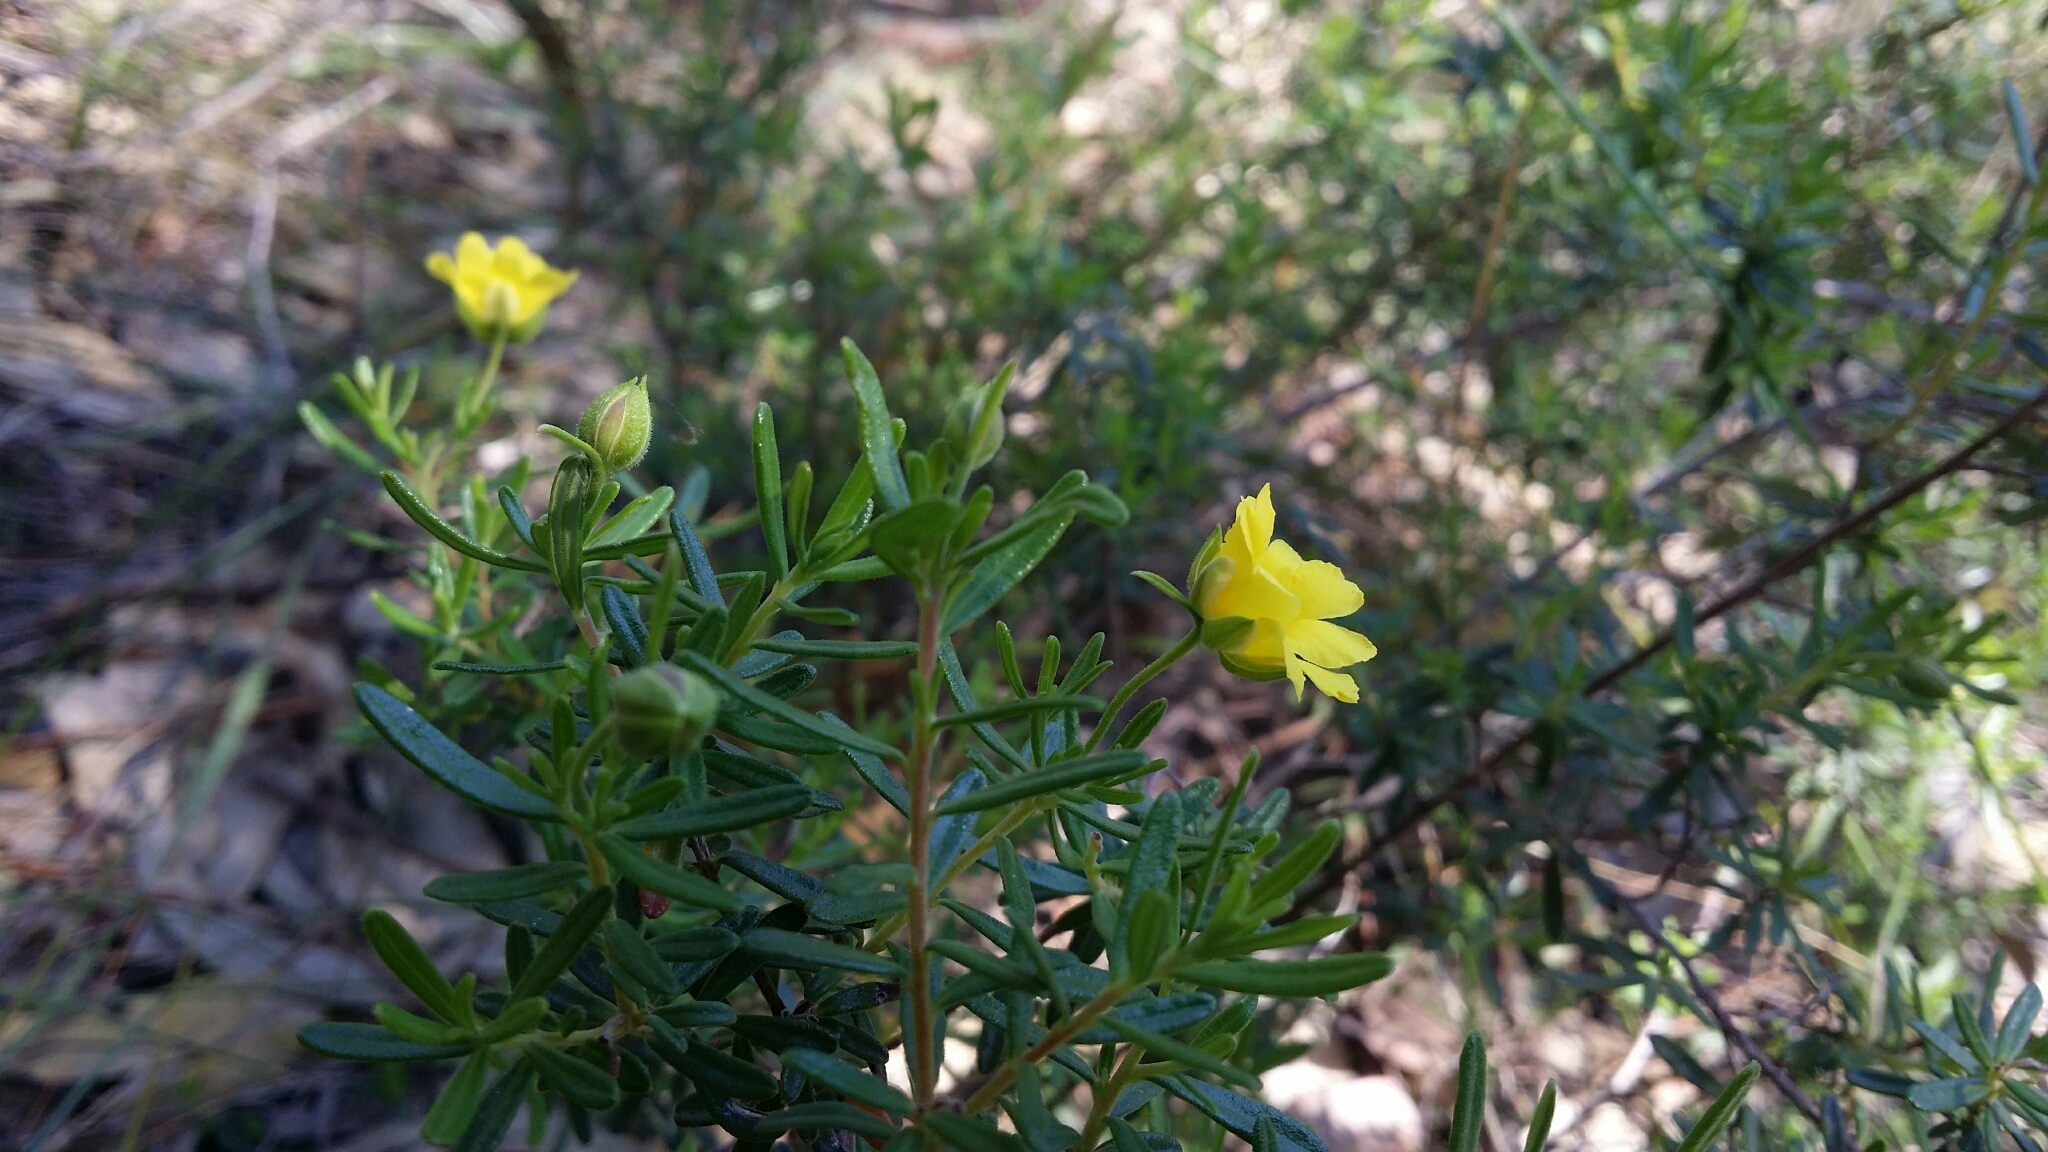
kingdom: Plantae
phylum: Tracheophyta
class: Magnoliopsida
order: Dilleniales
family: Dilleniaceae
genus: Hibbertia
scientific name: Hibbertia hypericoides
